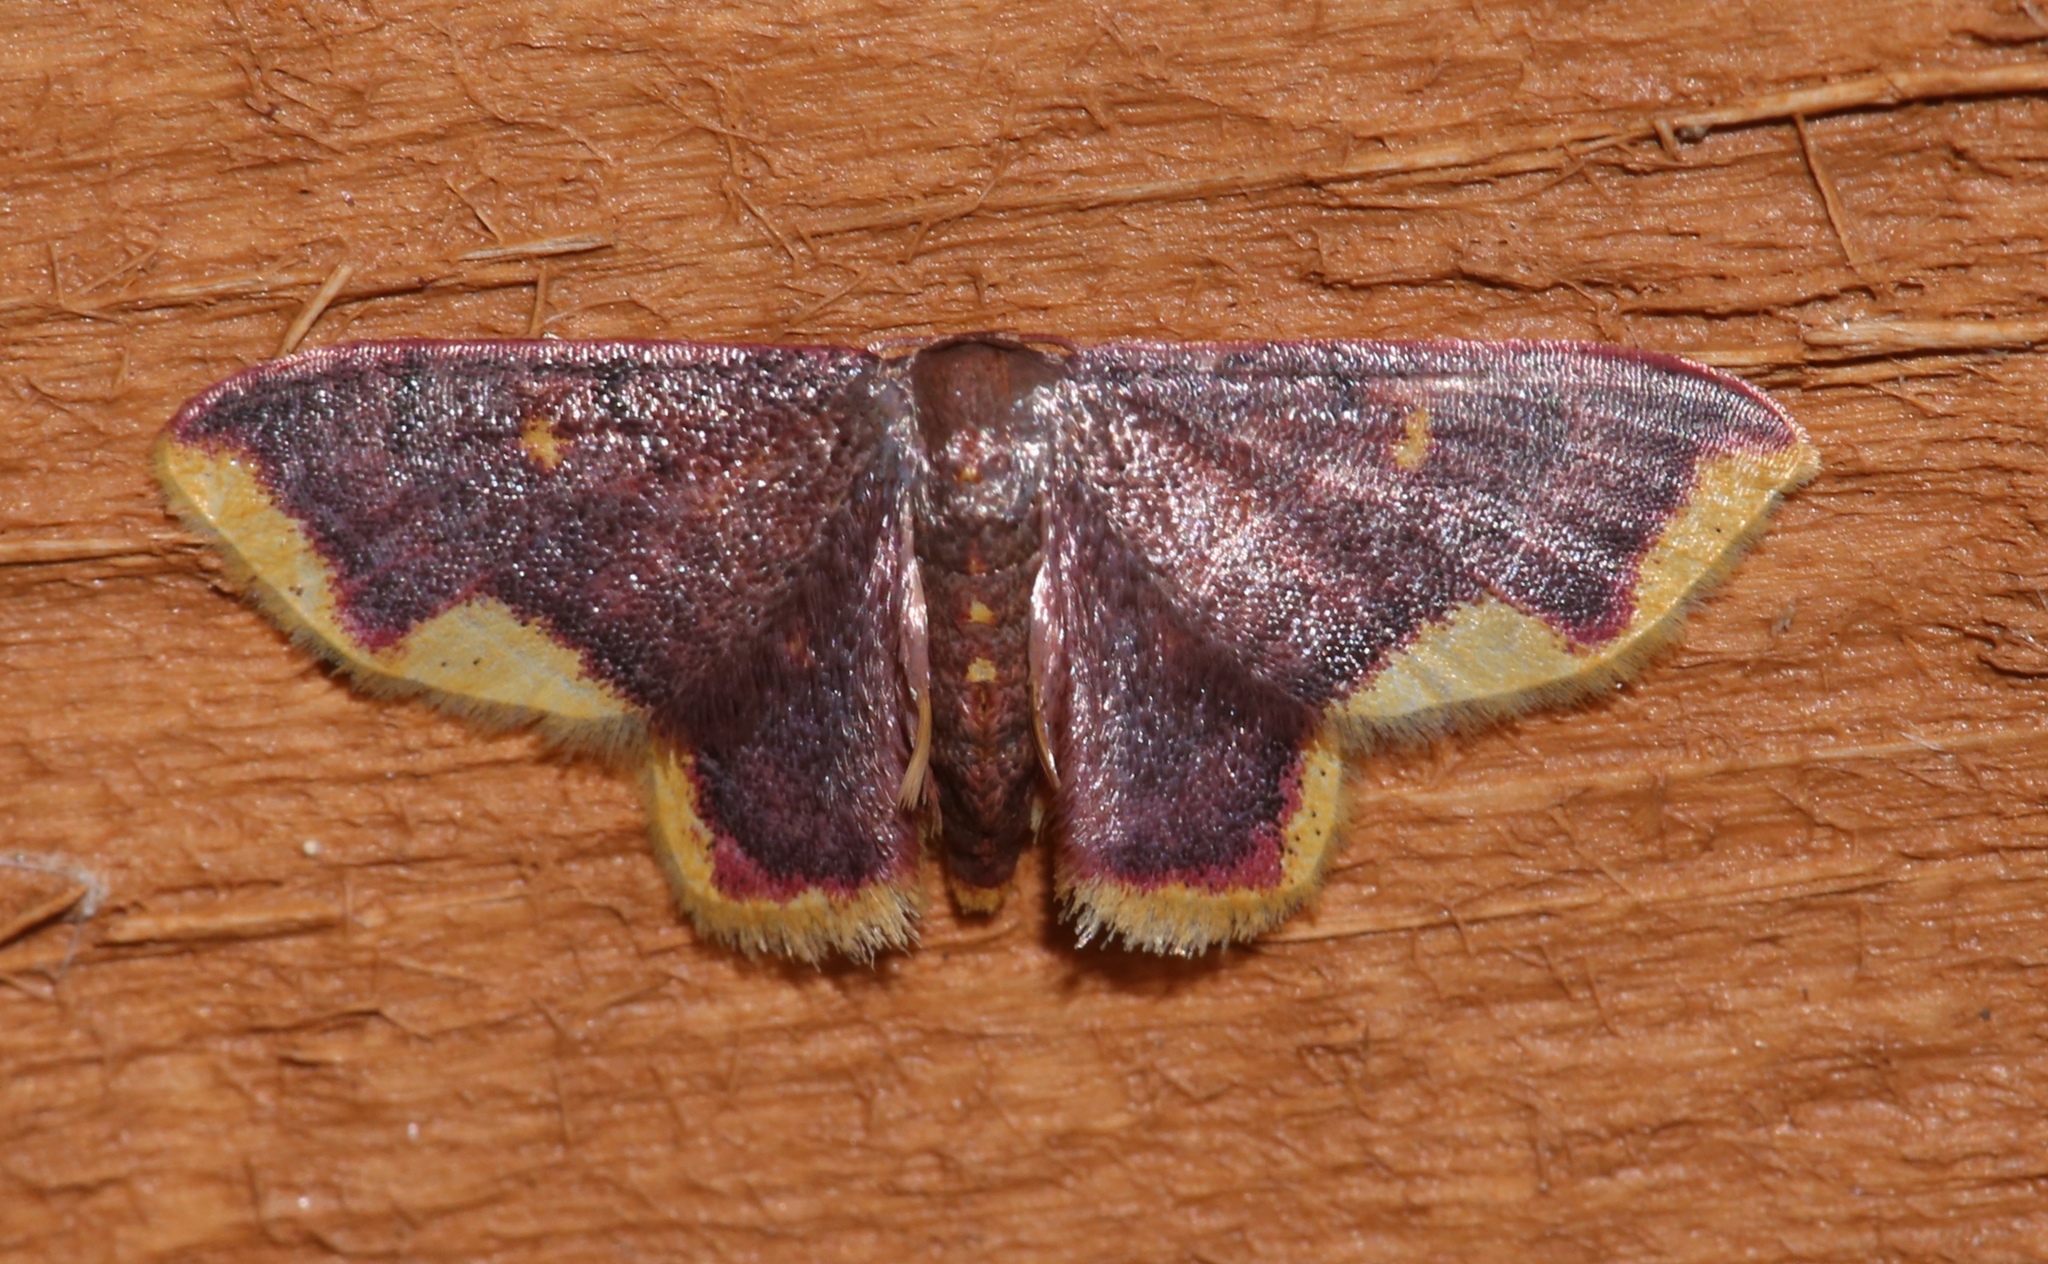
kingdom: Animalia
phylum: Arthropoda
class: Insecta
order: Lepidoptera
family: Geometridae
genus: Lophosis
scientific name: Lophosis labeculata
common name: Stained lophosis moth
